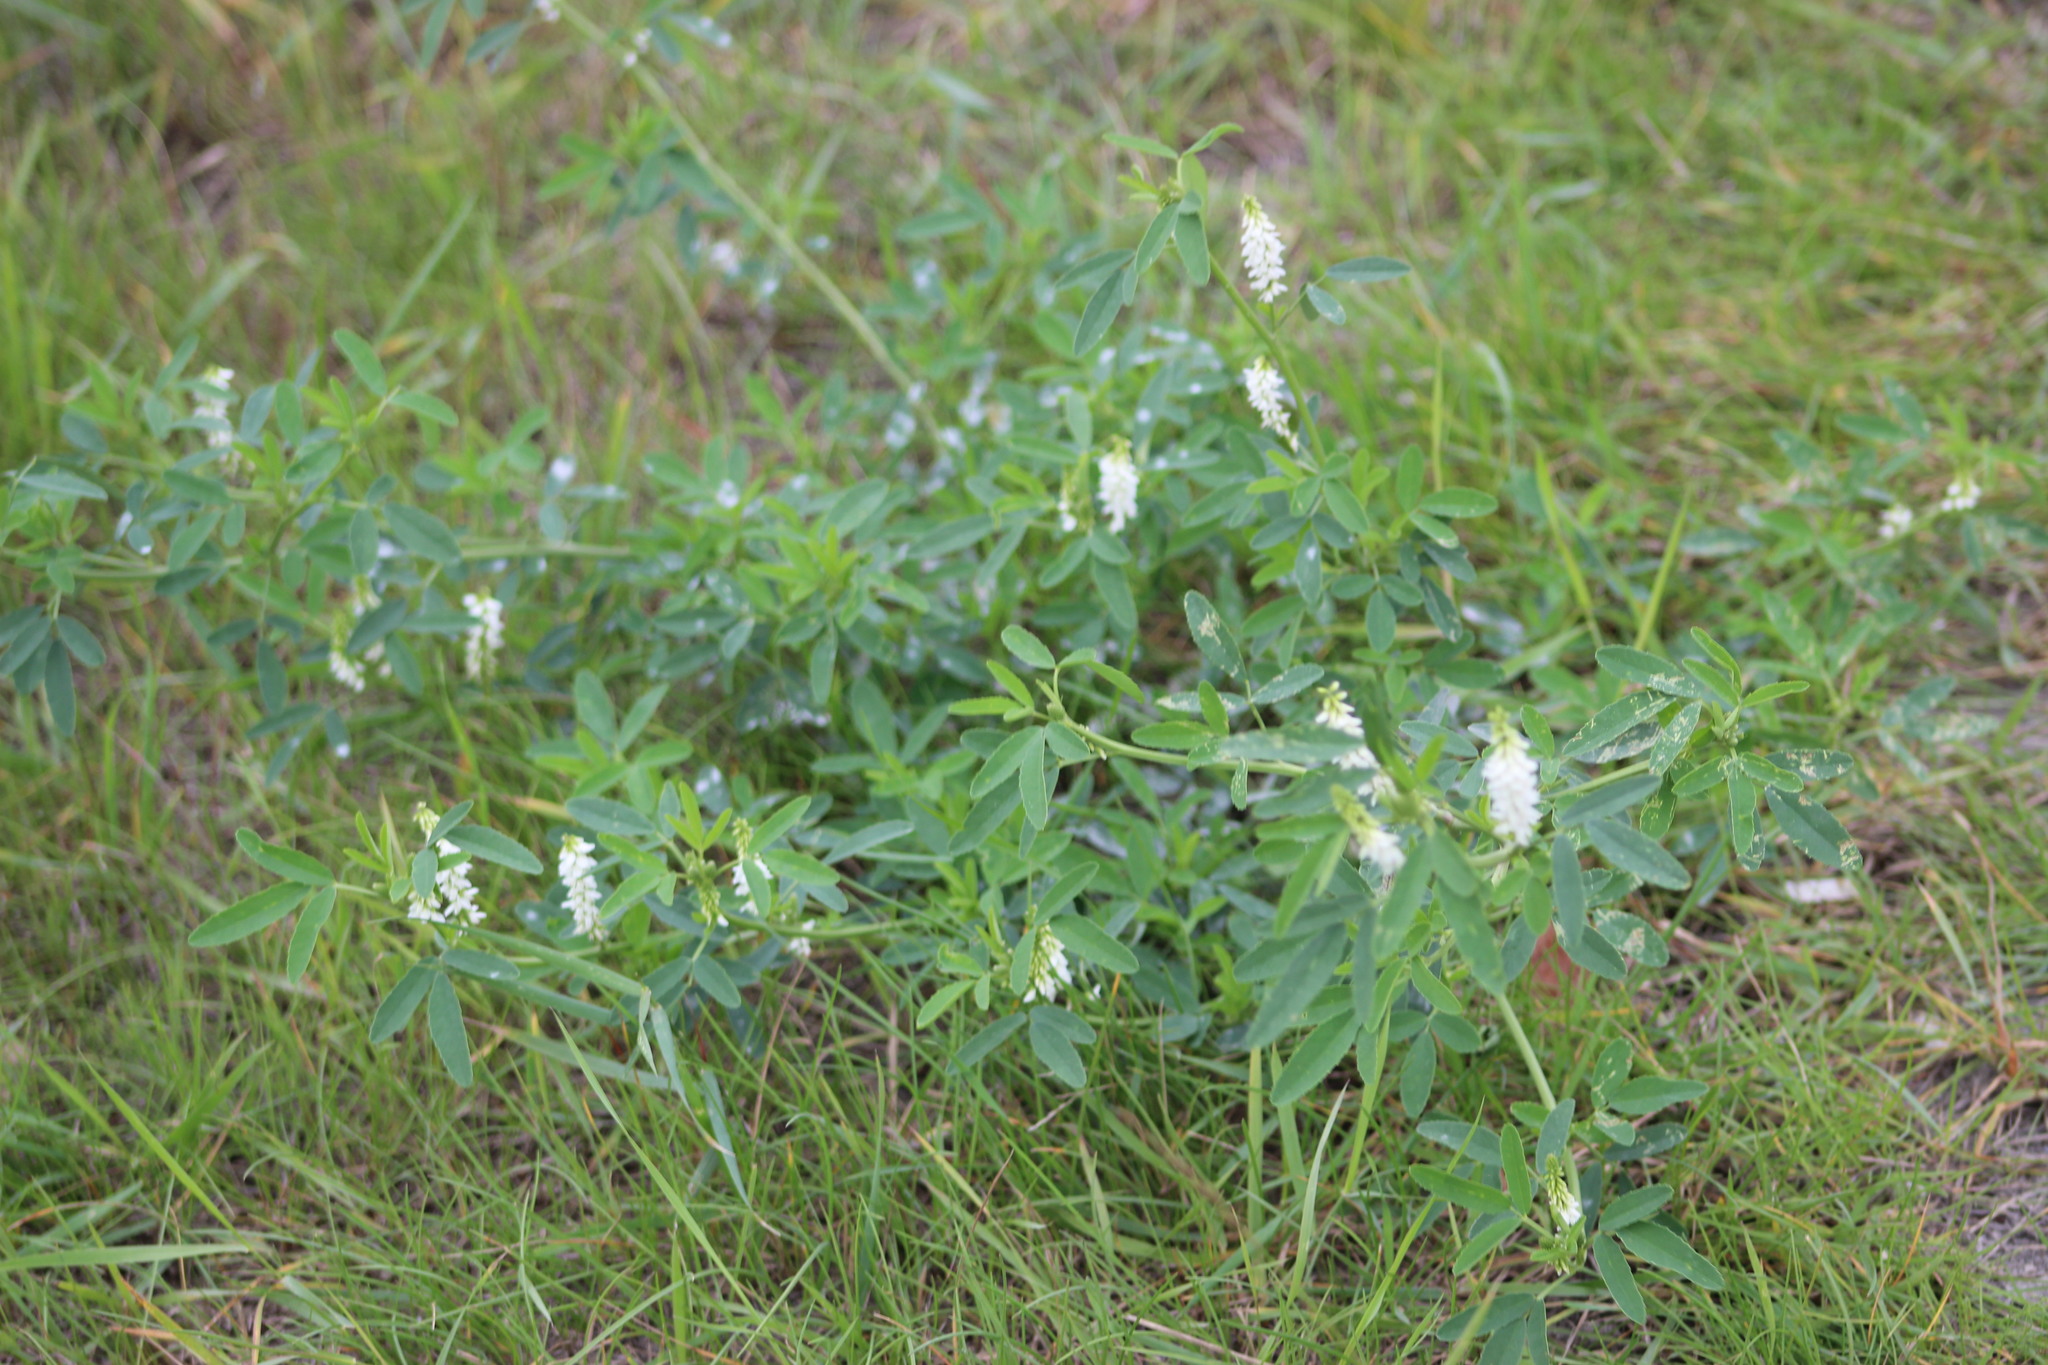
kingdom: Plantae
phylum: Tracheophyta
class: Magnoliopsida
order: Fabales
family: Fabaceae
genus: Melilotus
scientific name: Melilotus albus
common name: White melilot
